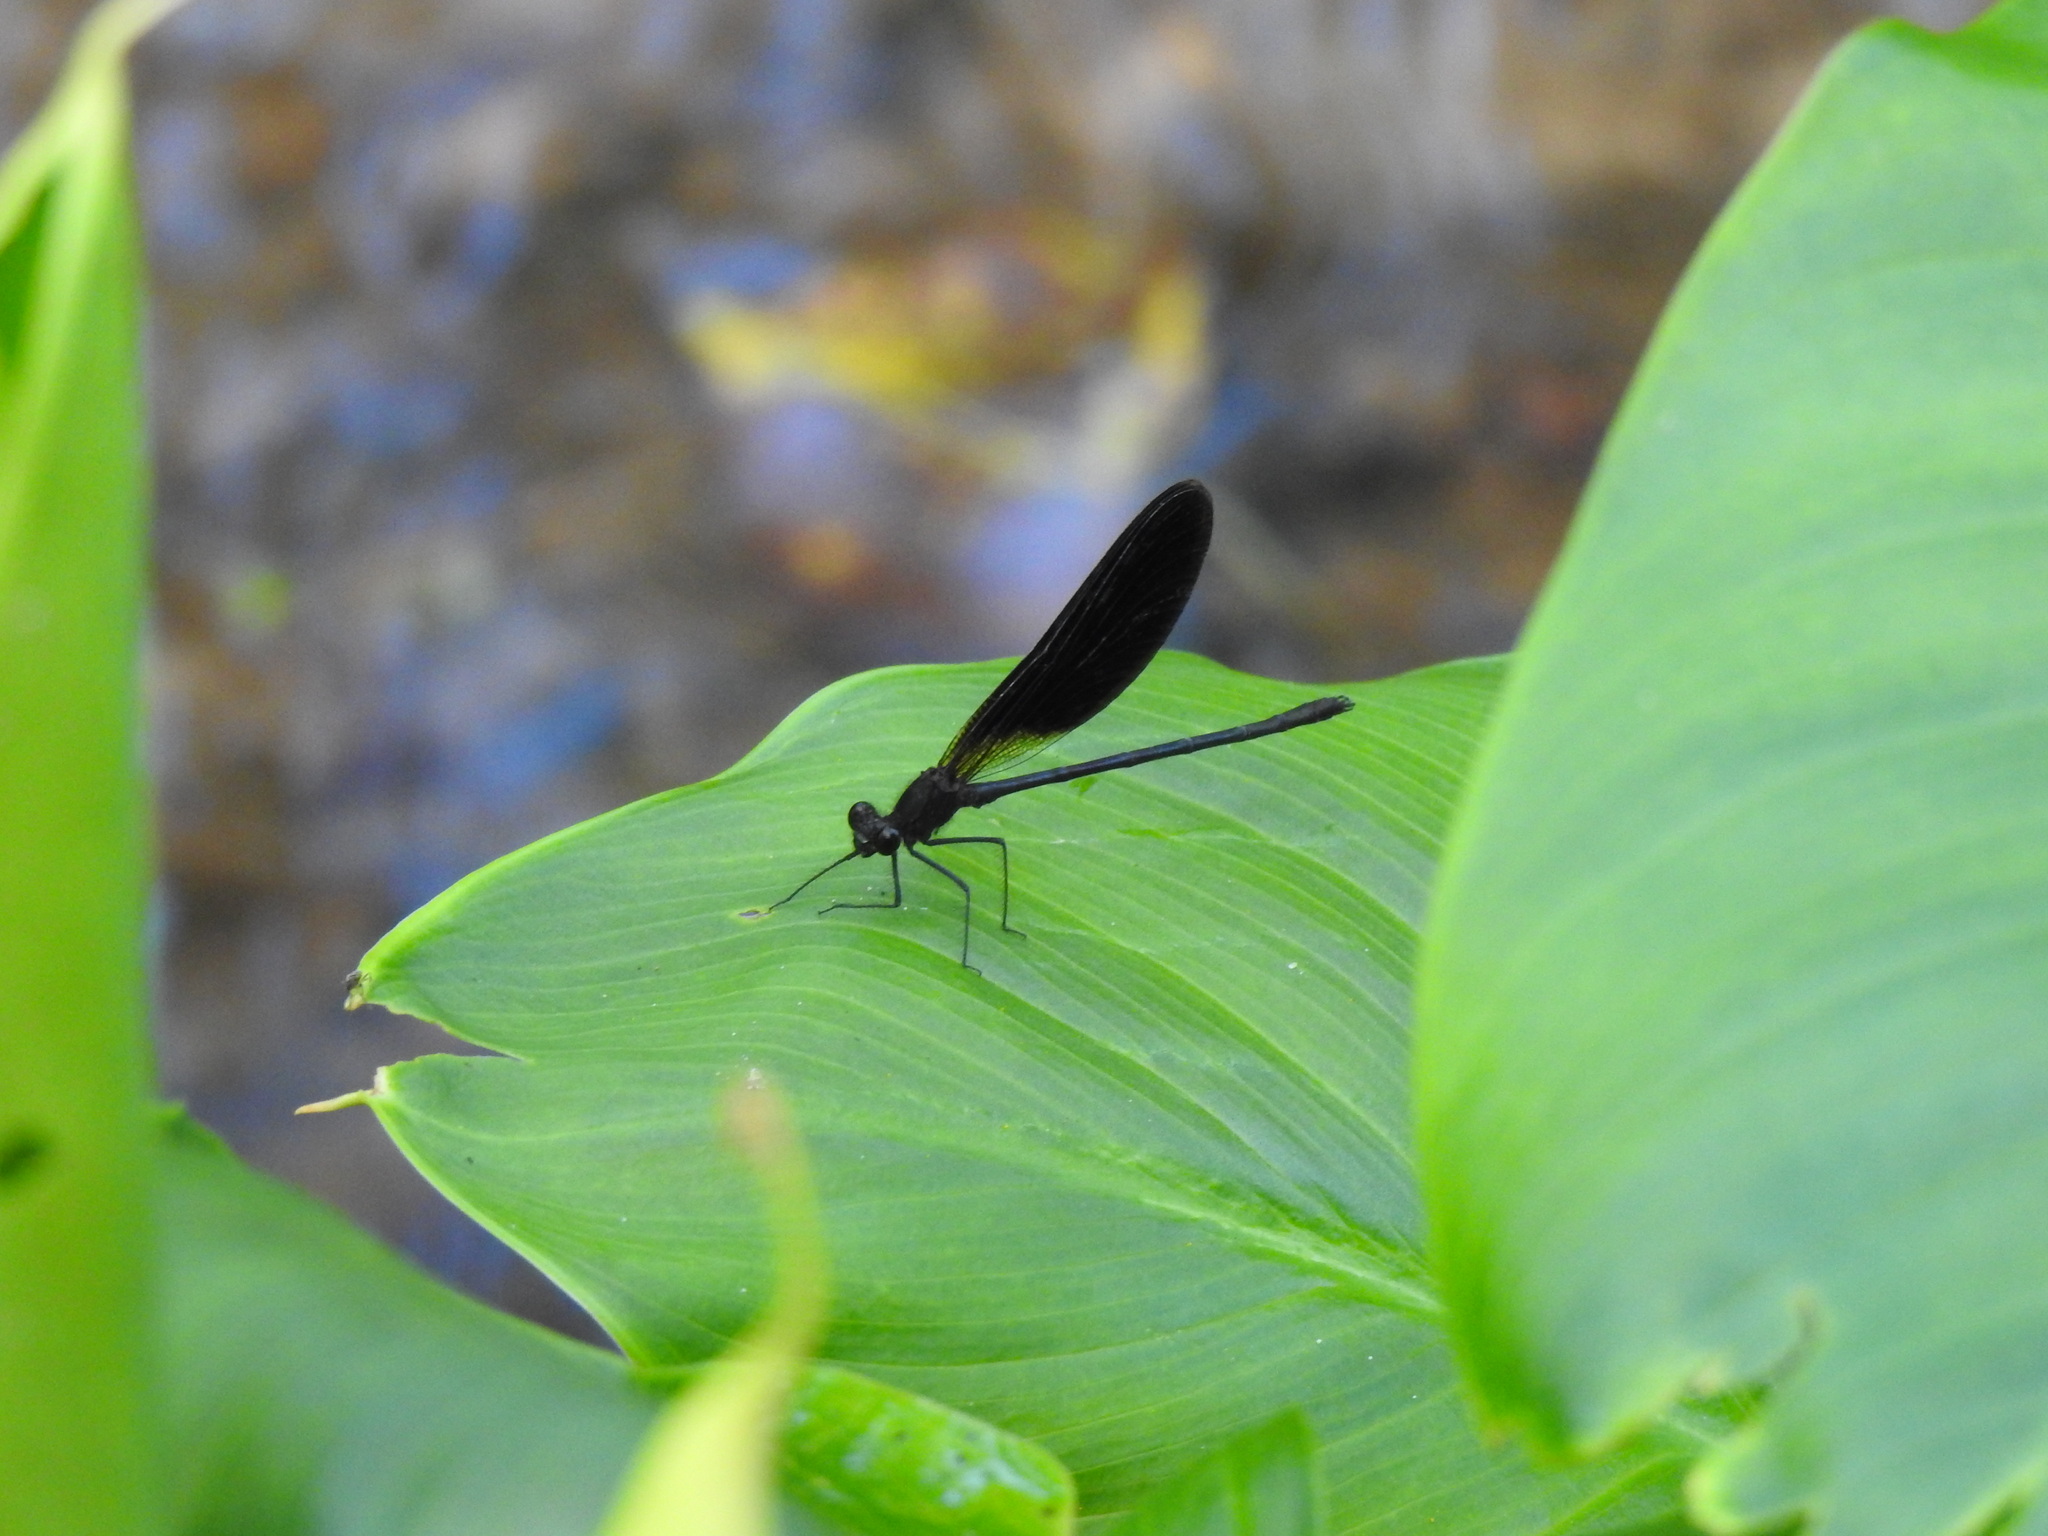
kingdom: Animalia
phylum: Arthropoda
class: Insecta
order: Odonata
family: Calopterygidae
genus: Calopteryx
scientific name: Calopteryx haemorrhoidalis
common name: Copper demoiselle
